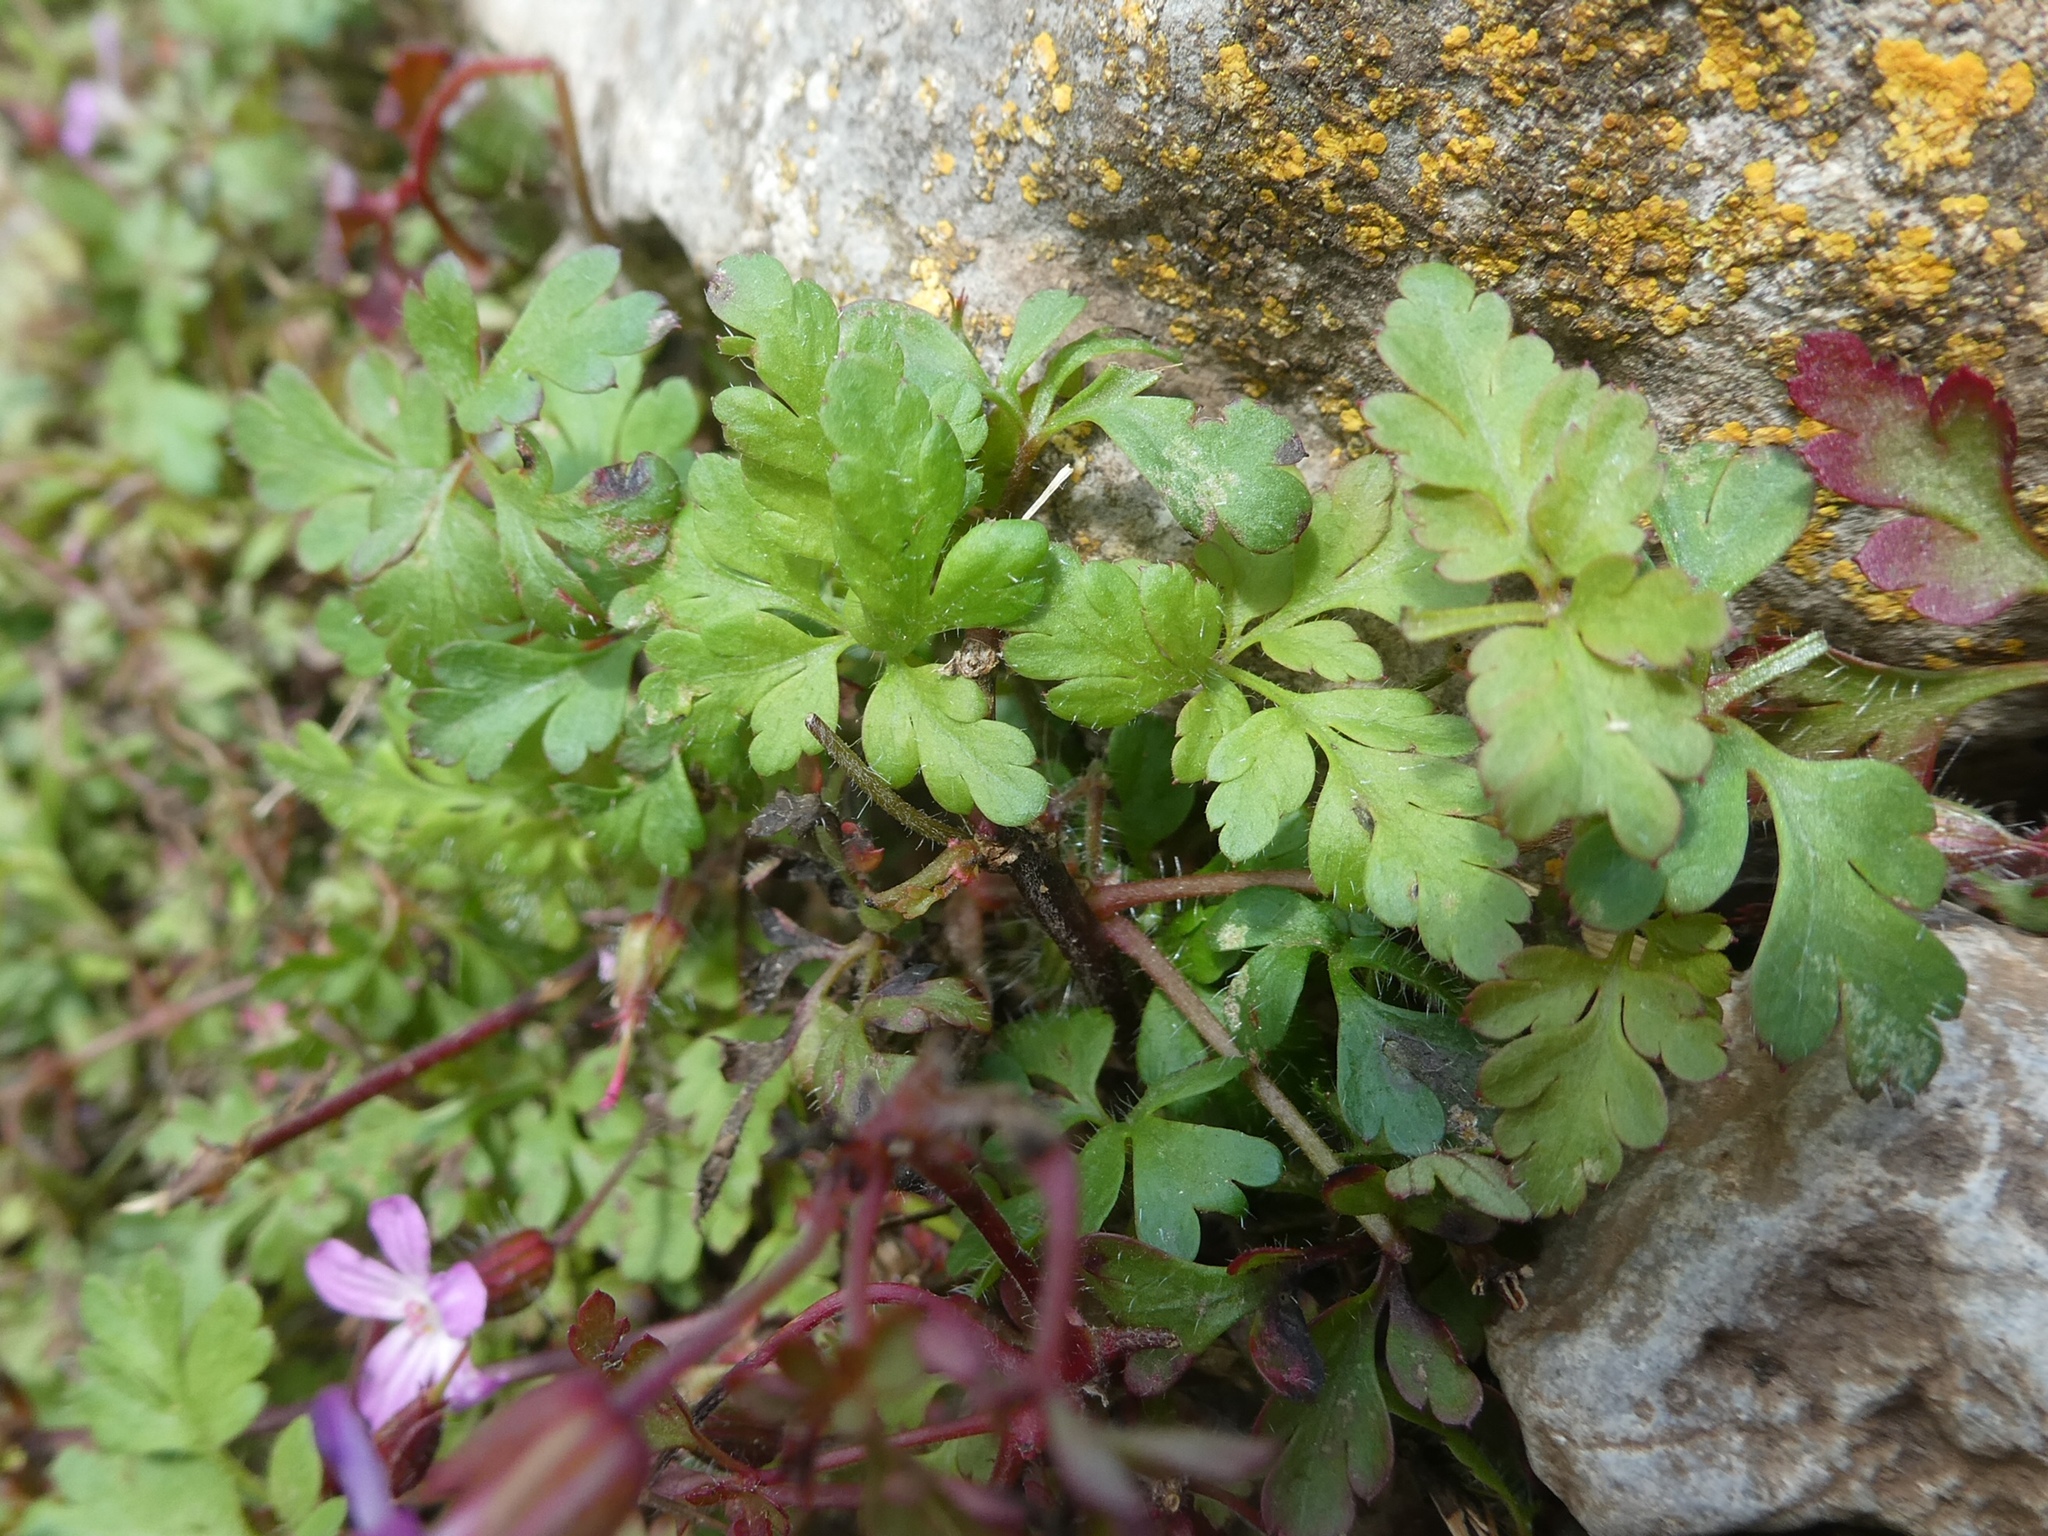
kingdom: Plantae
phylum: Tracheophyta
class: Magnoliopsida
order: Geraniales
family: Geraniaceae
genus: Geranium
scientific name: Geranium robertianum
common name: Herb-robert
